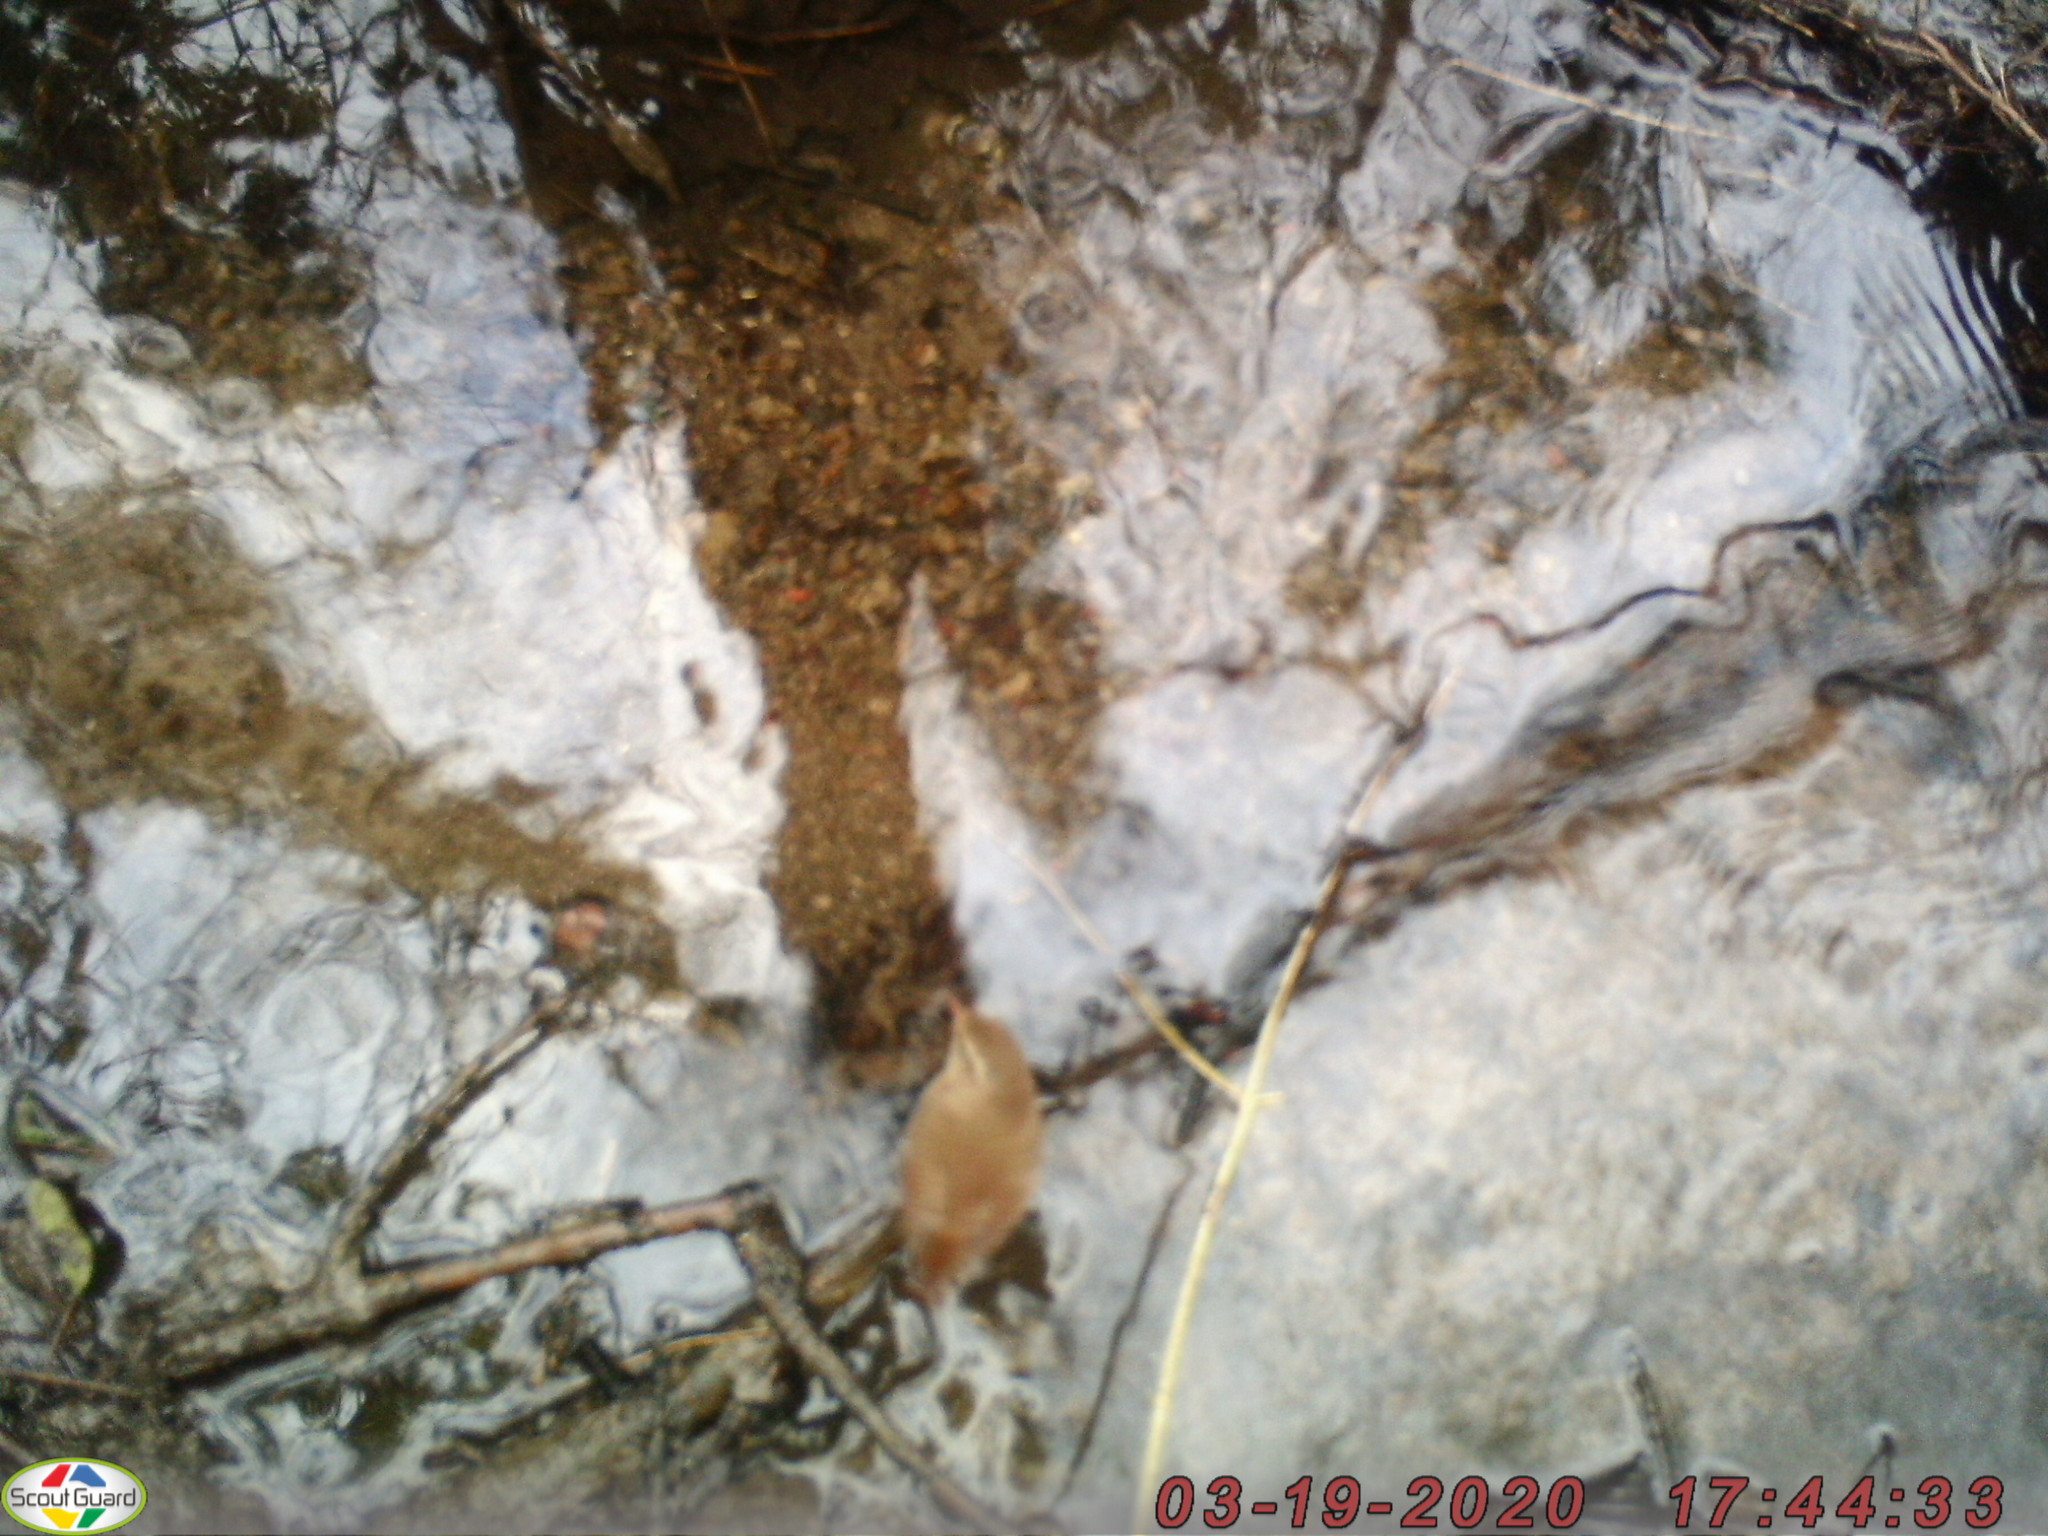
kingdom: Animalia
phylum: Chordata
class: Aves
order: Passeriformes
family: Troglodytidae
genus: Troglodytes
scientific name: Troglodytes troglodytes
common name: Eurasian wren
